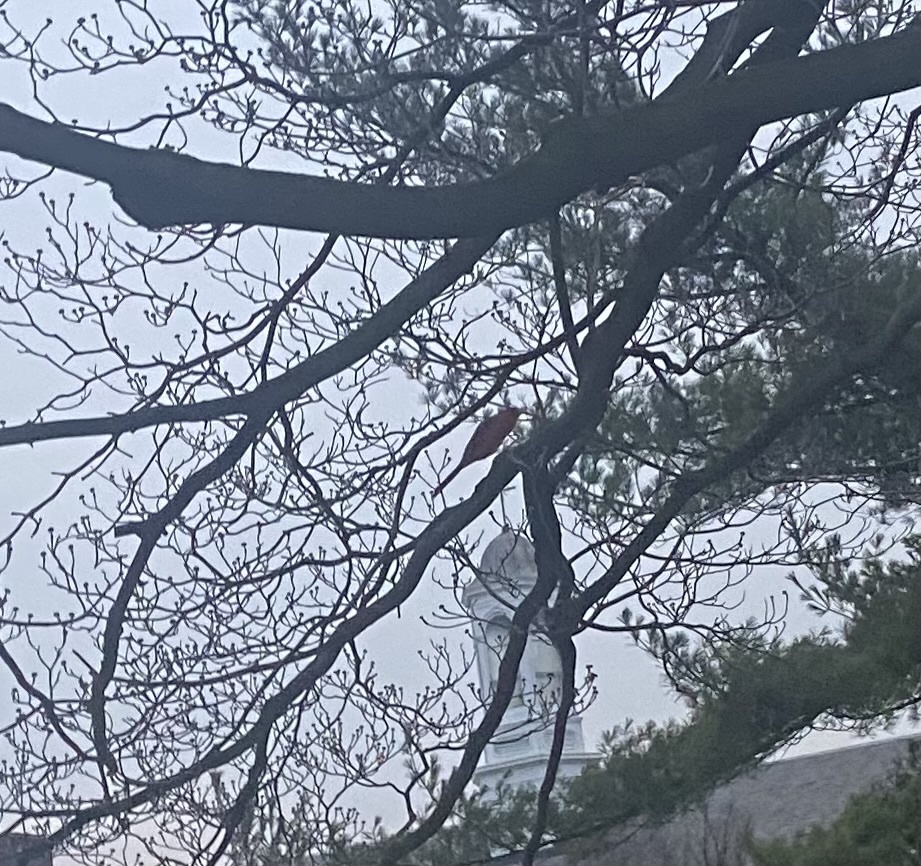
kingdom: Animalia
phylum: Chordata
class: Aves
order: Passeriformes
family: Cardinalidae
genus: Cardinalis
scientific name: Cardinalis cardinalis
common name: Northern cardinal
